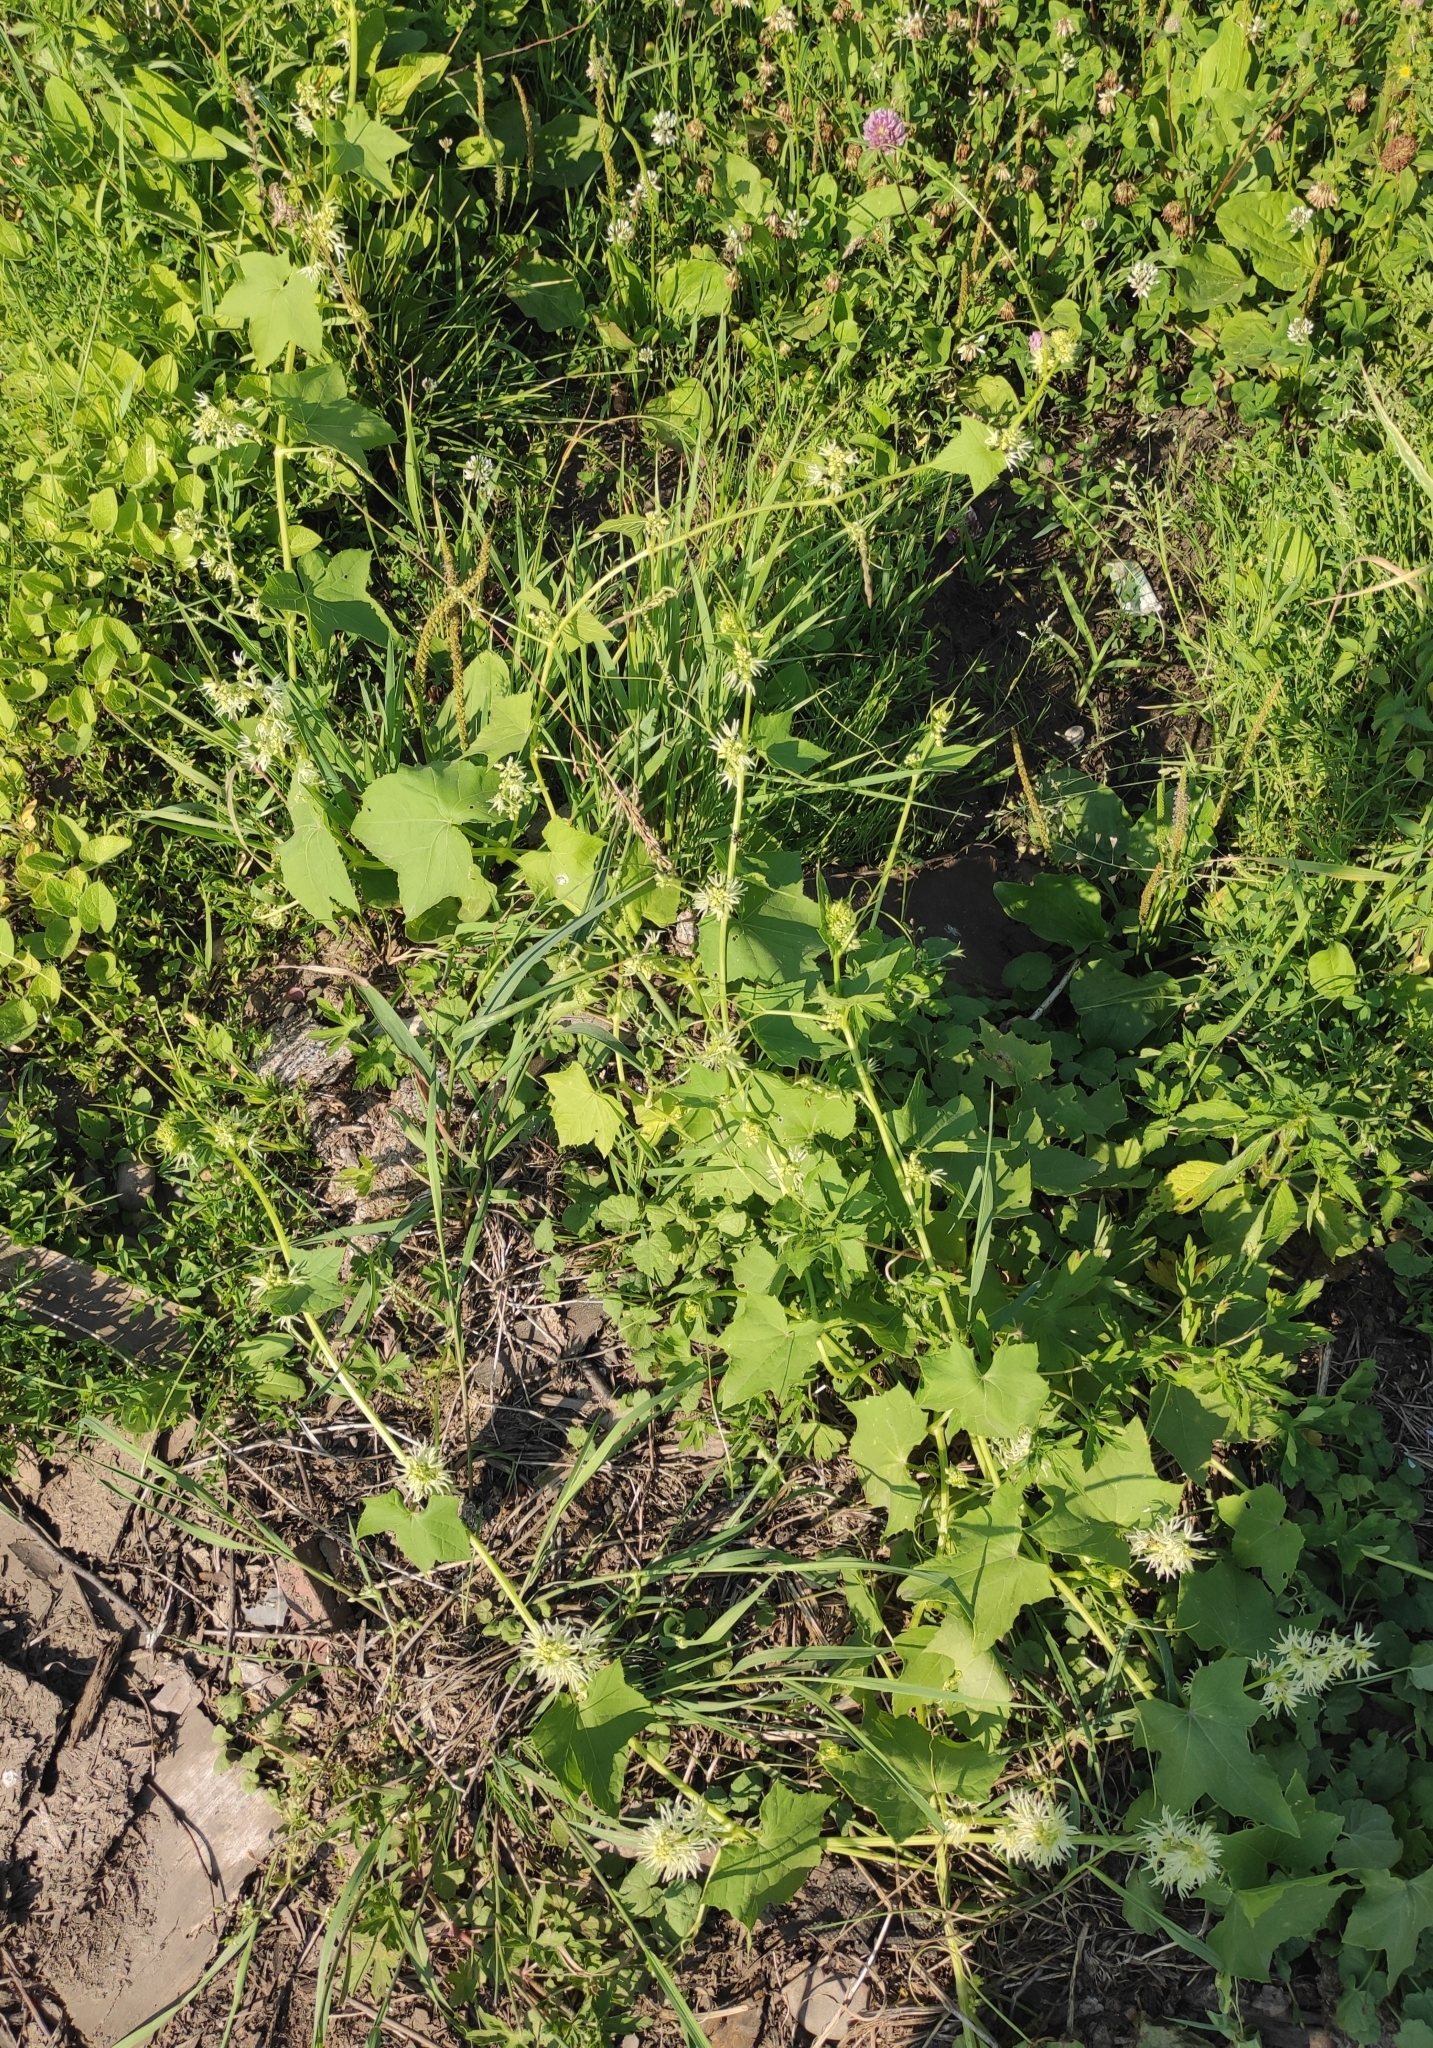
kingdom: Plantae
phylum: Tracheophyta
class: Magnoliopsida
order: Cucurbitales
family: Cucurbitaceae
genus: Echinocystis
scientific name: Echinocystis lobata
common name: Wild cucumber
